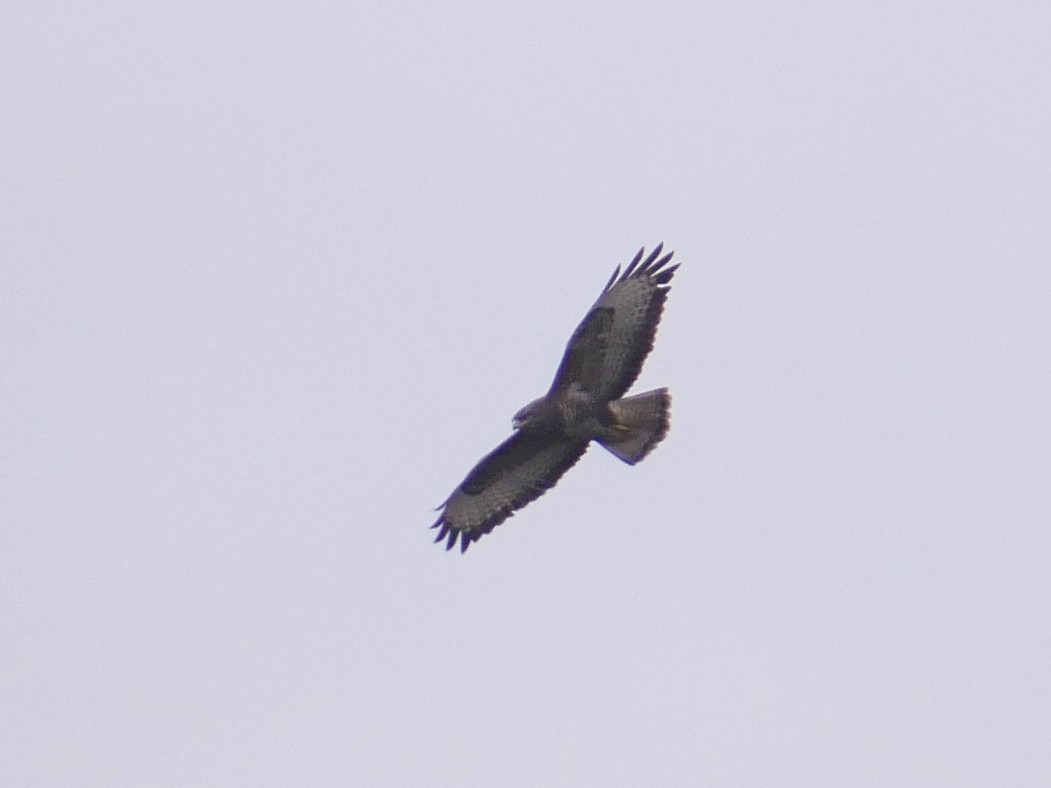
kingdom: Animalia
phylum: Chordata
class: Aves
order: Accipitriformes
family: Accipitridae
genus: Buteo
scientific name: Buteo buteo
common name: Common buzzard
